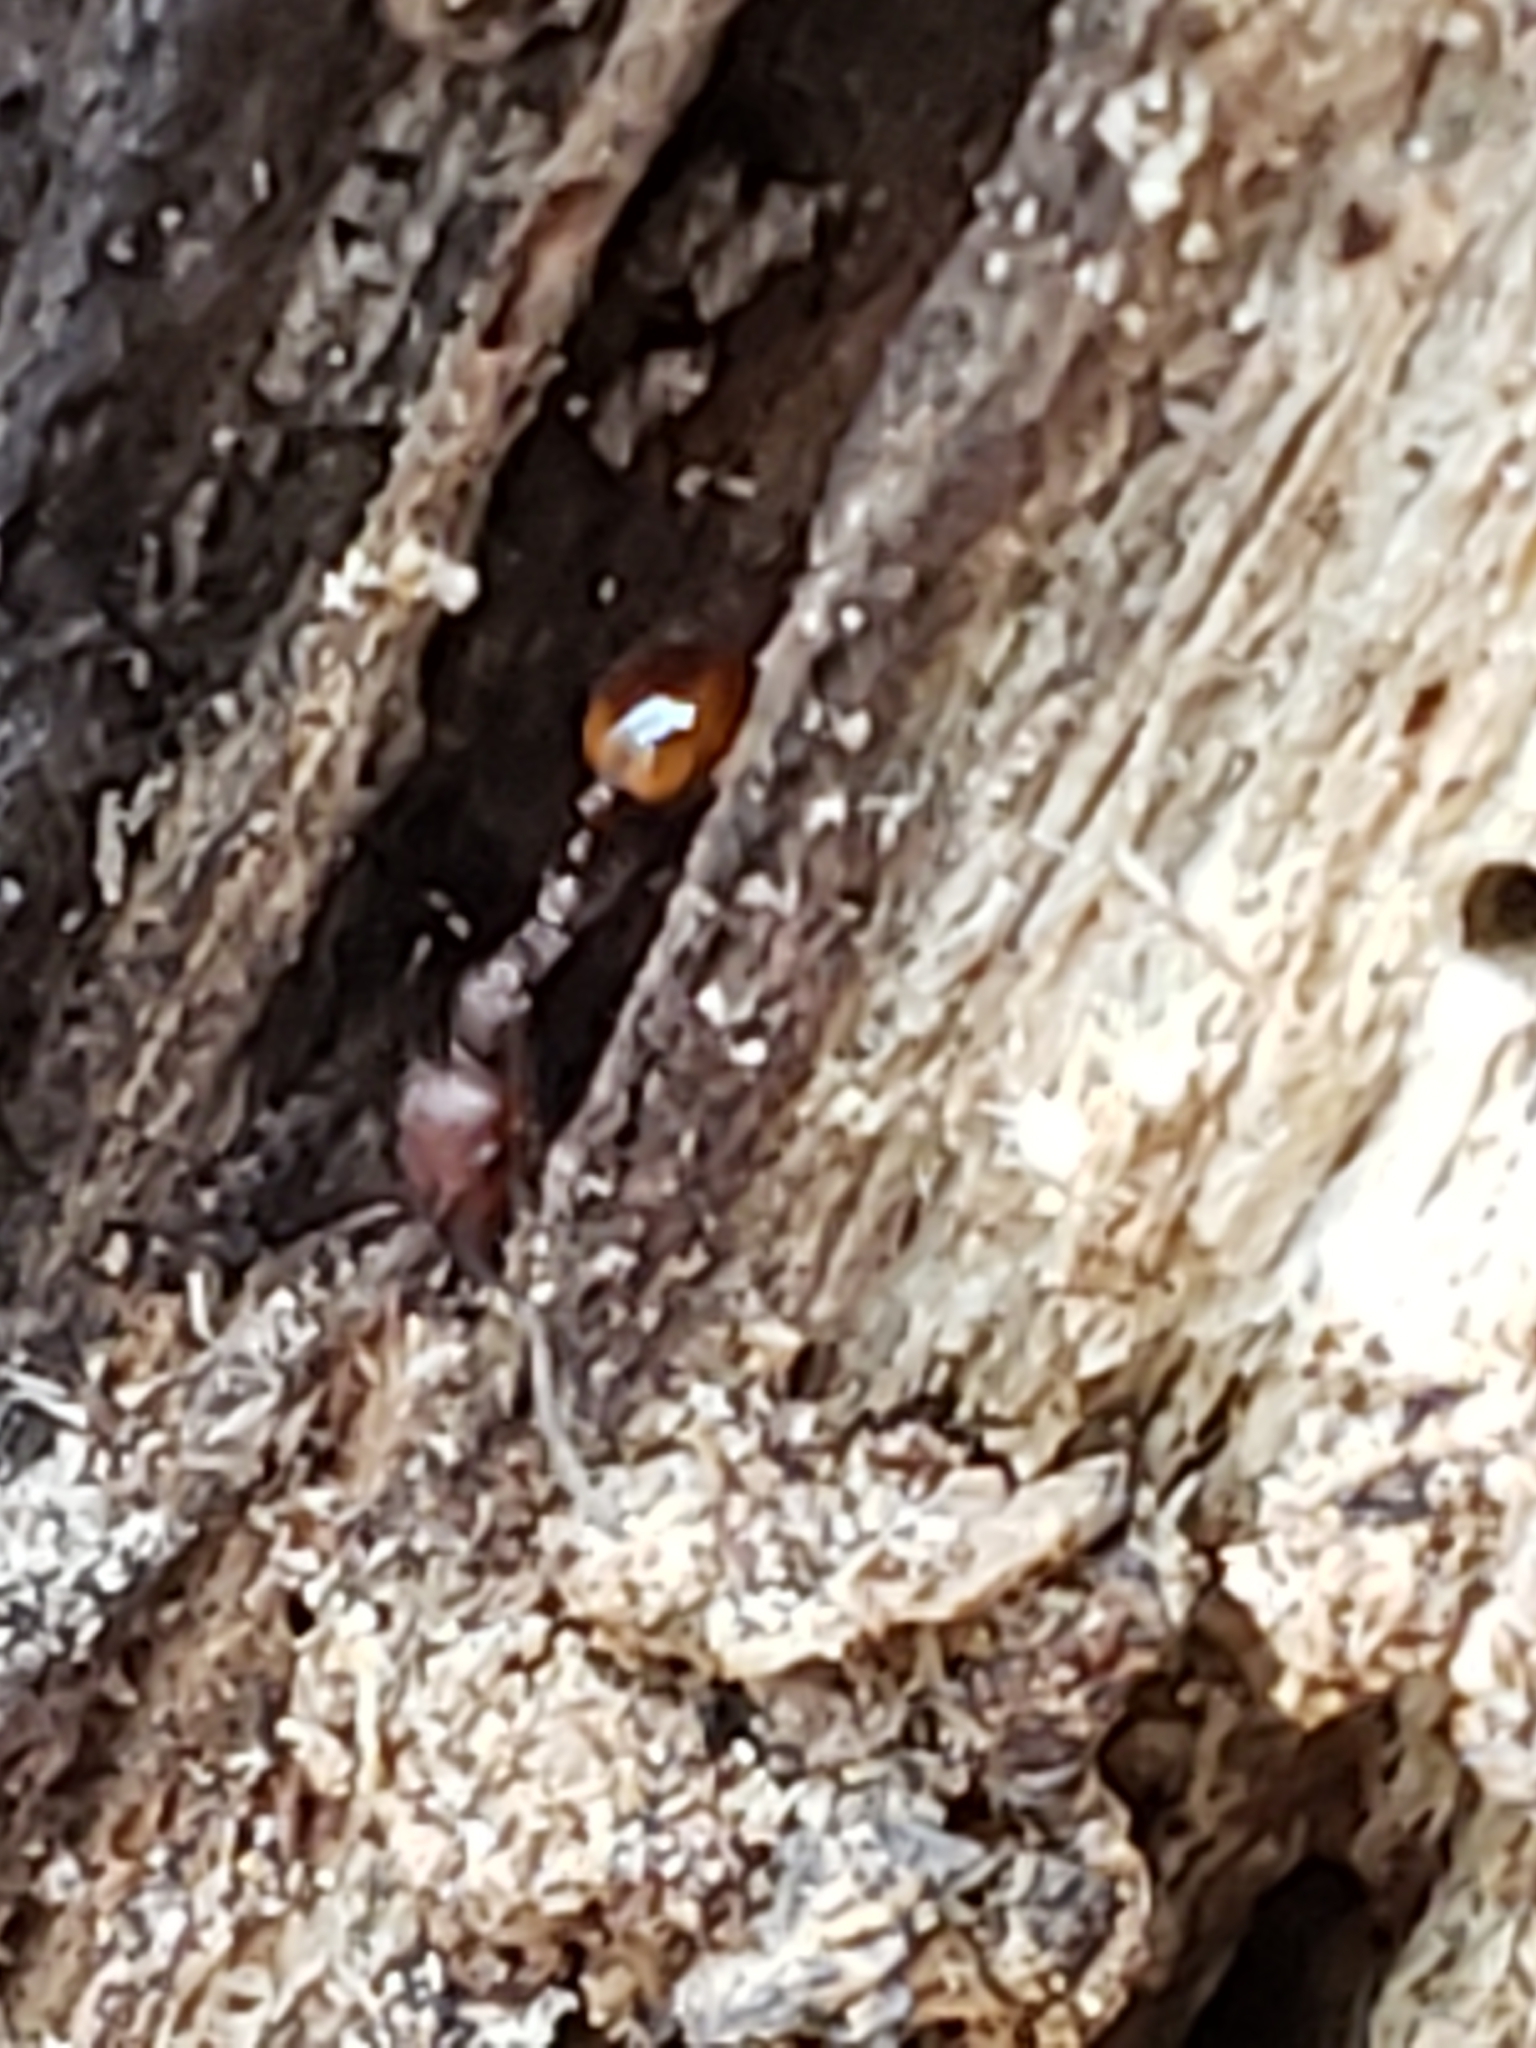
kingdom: Animalia
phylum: Arthropoda
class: Insecta
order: Hymenoptera
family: Formicidae
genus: Aphaenogaster
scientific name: Aphaenogaster tennesseensis
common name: Tennessee thread-waisted ant
